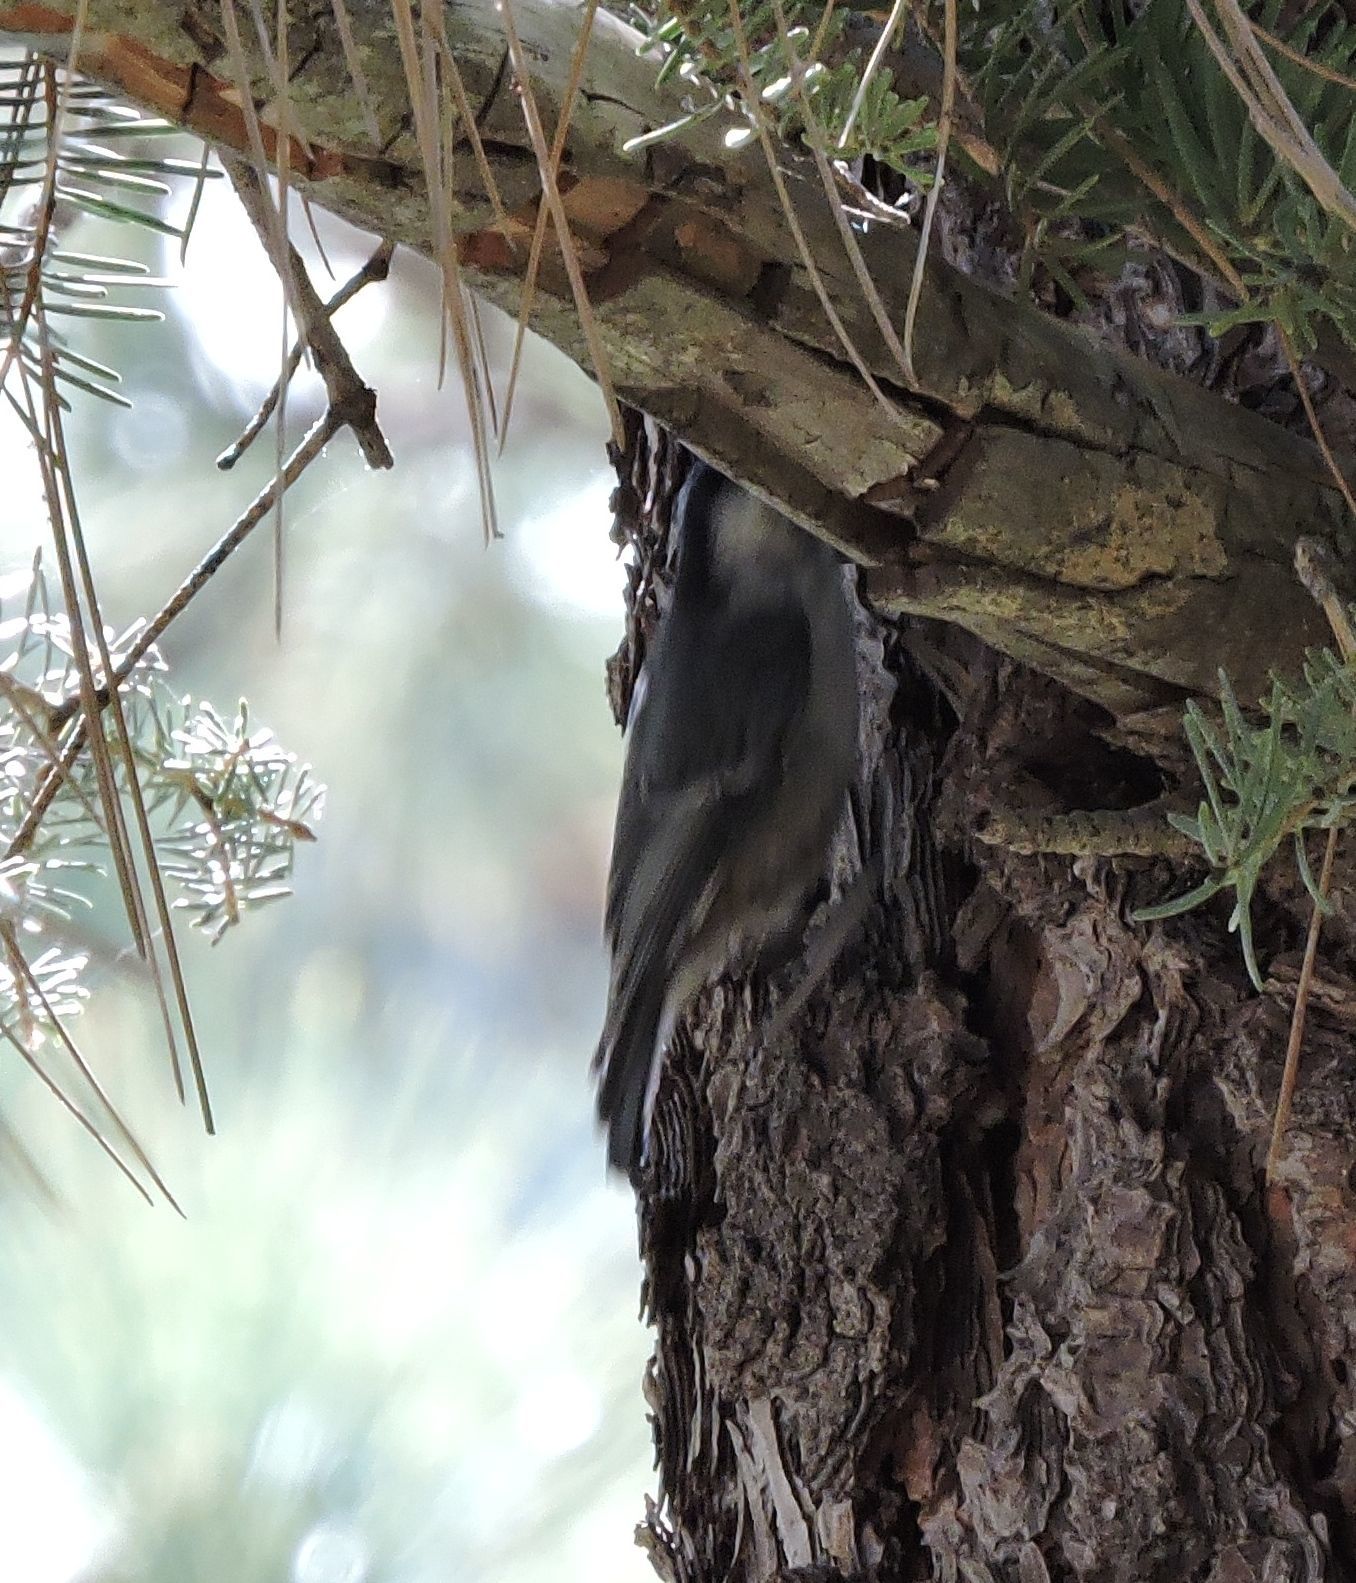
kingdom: Animalia
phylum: Chordata
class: Aves
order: Passeriformes
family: Sittidae
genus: Sitta
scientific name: Sitta carolinensis
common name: White-breasted nuthatch
